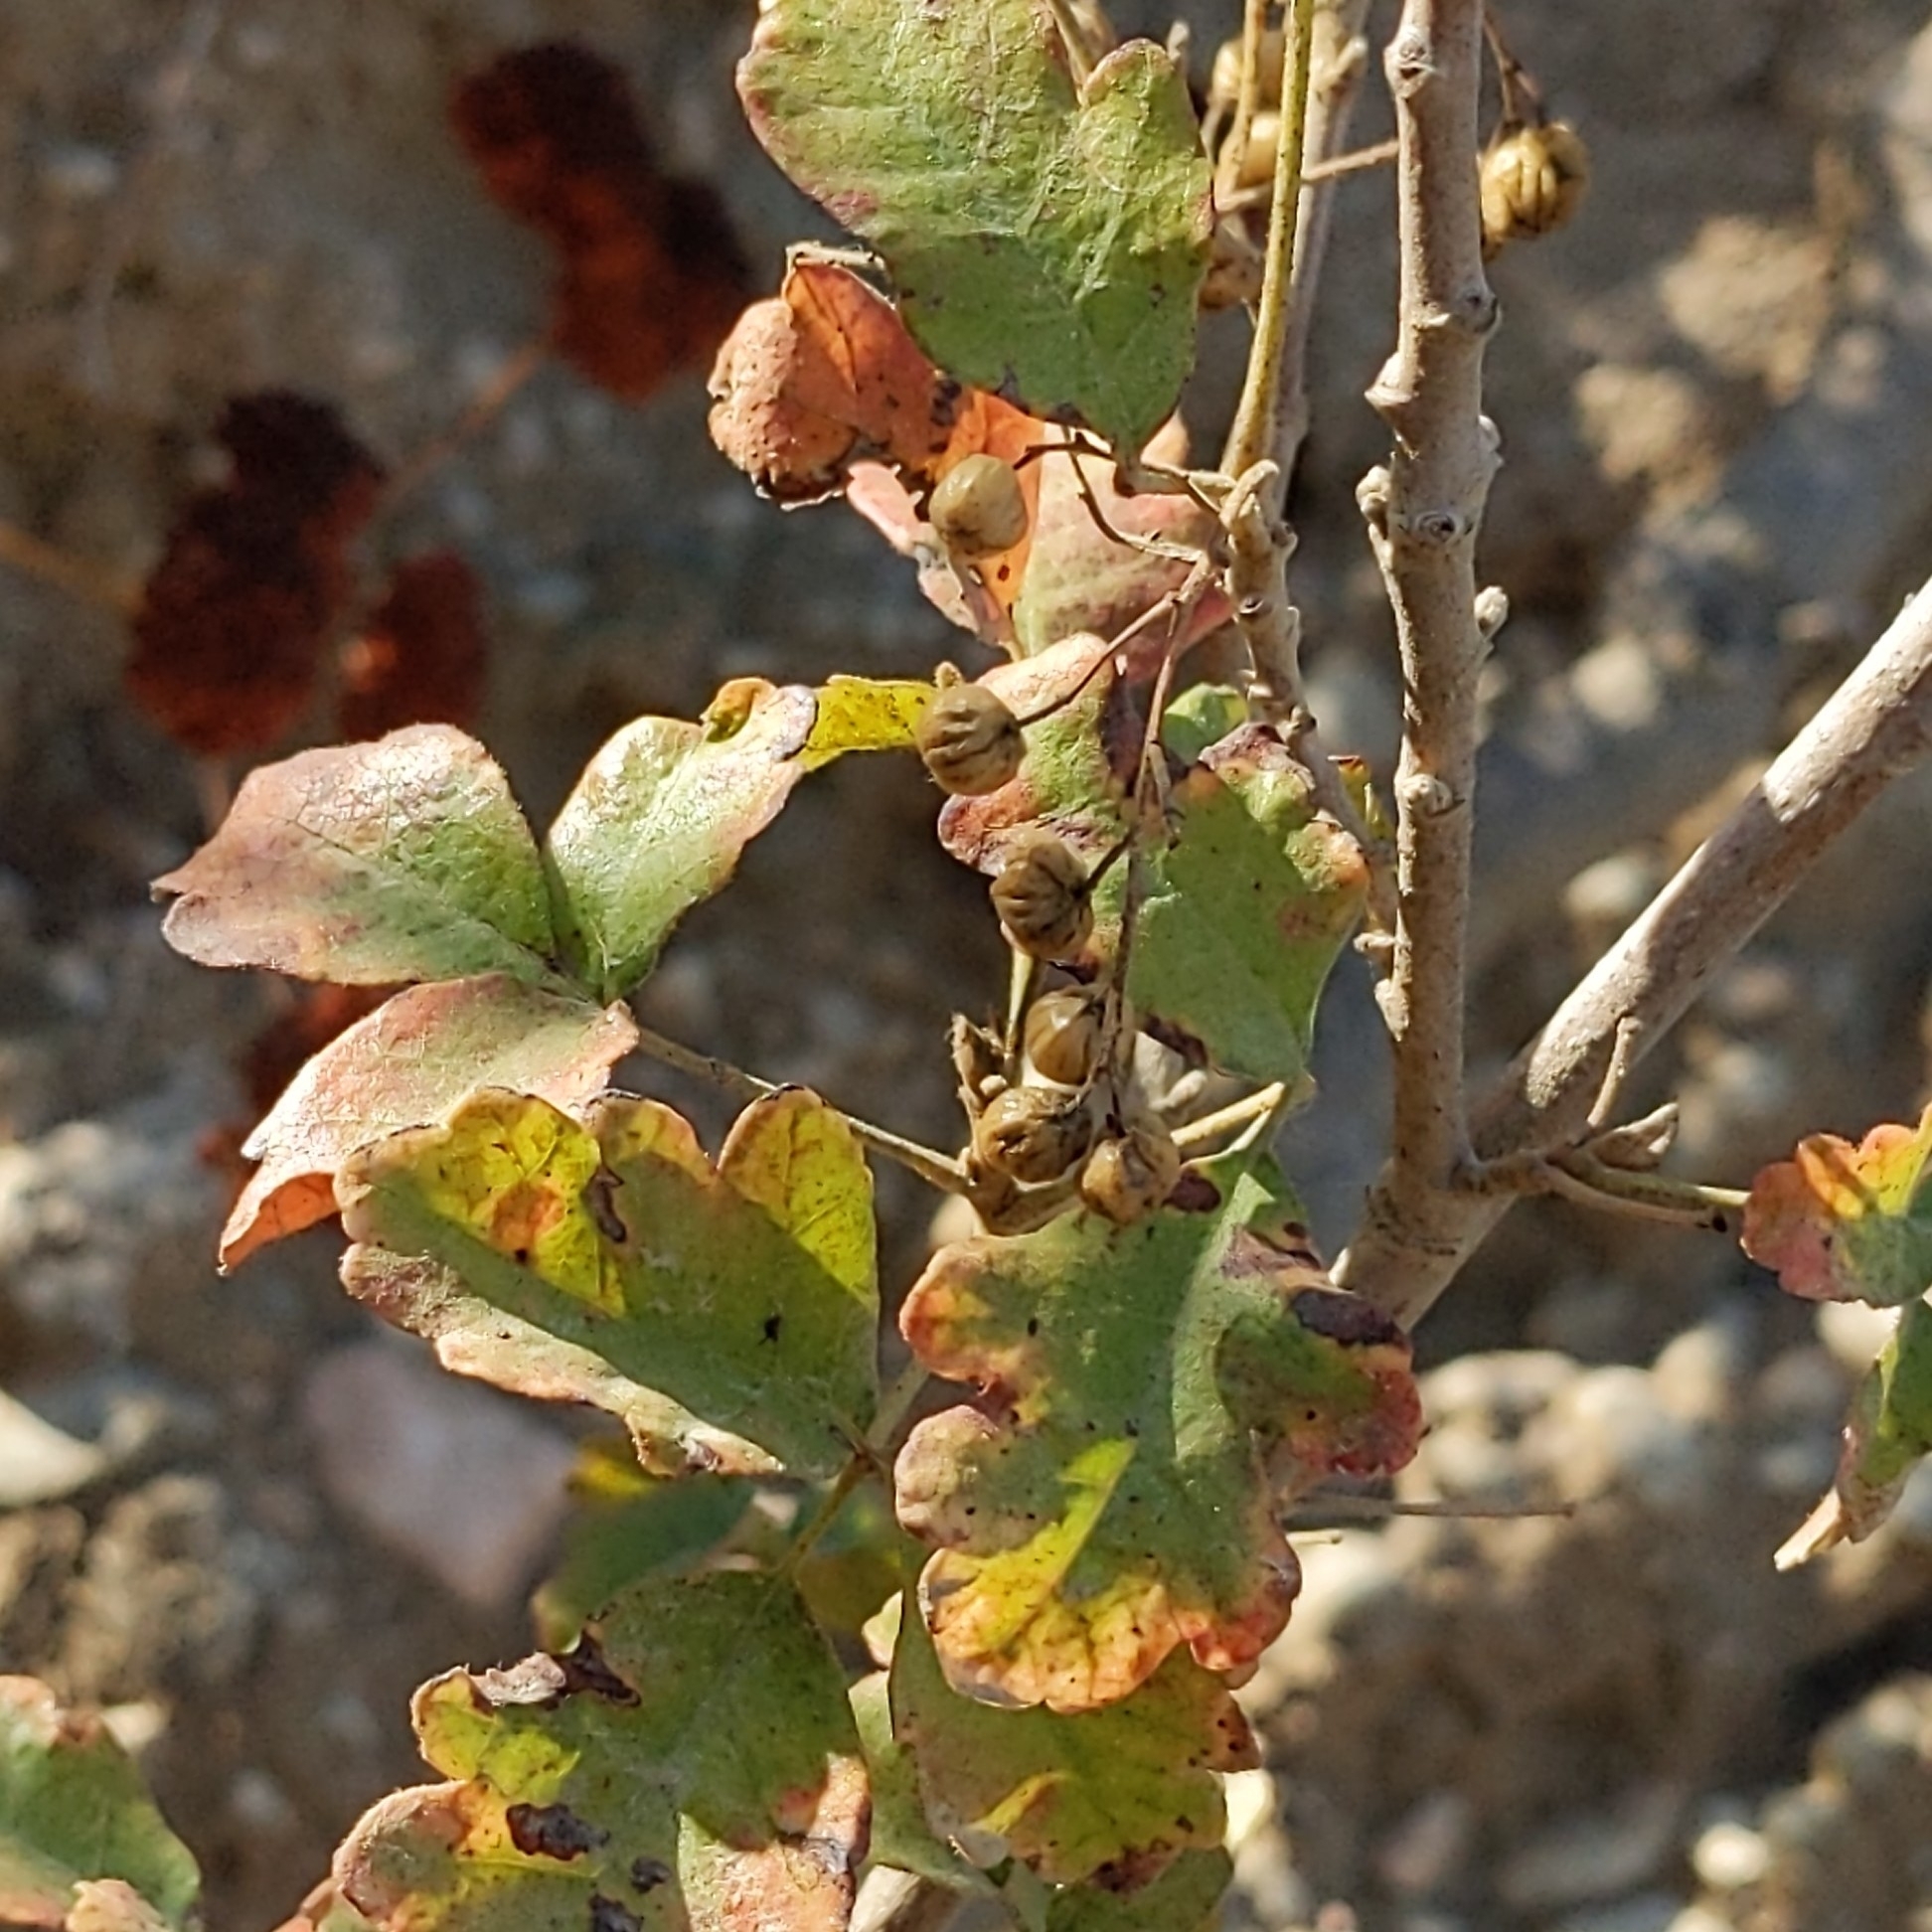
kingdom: Plantae
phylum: Tracheophyta
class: Magnoliopsida
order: Sapindales
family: Anacardiaceae
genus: Toxicodendron
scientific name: Toxicodendron diversilobum
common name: Pacific poison-oak
